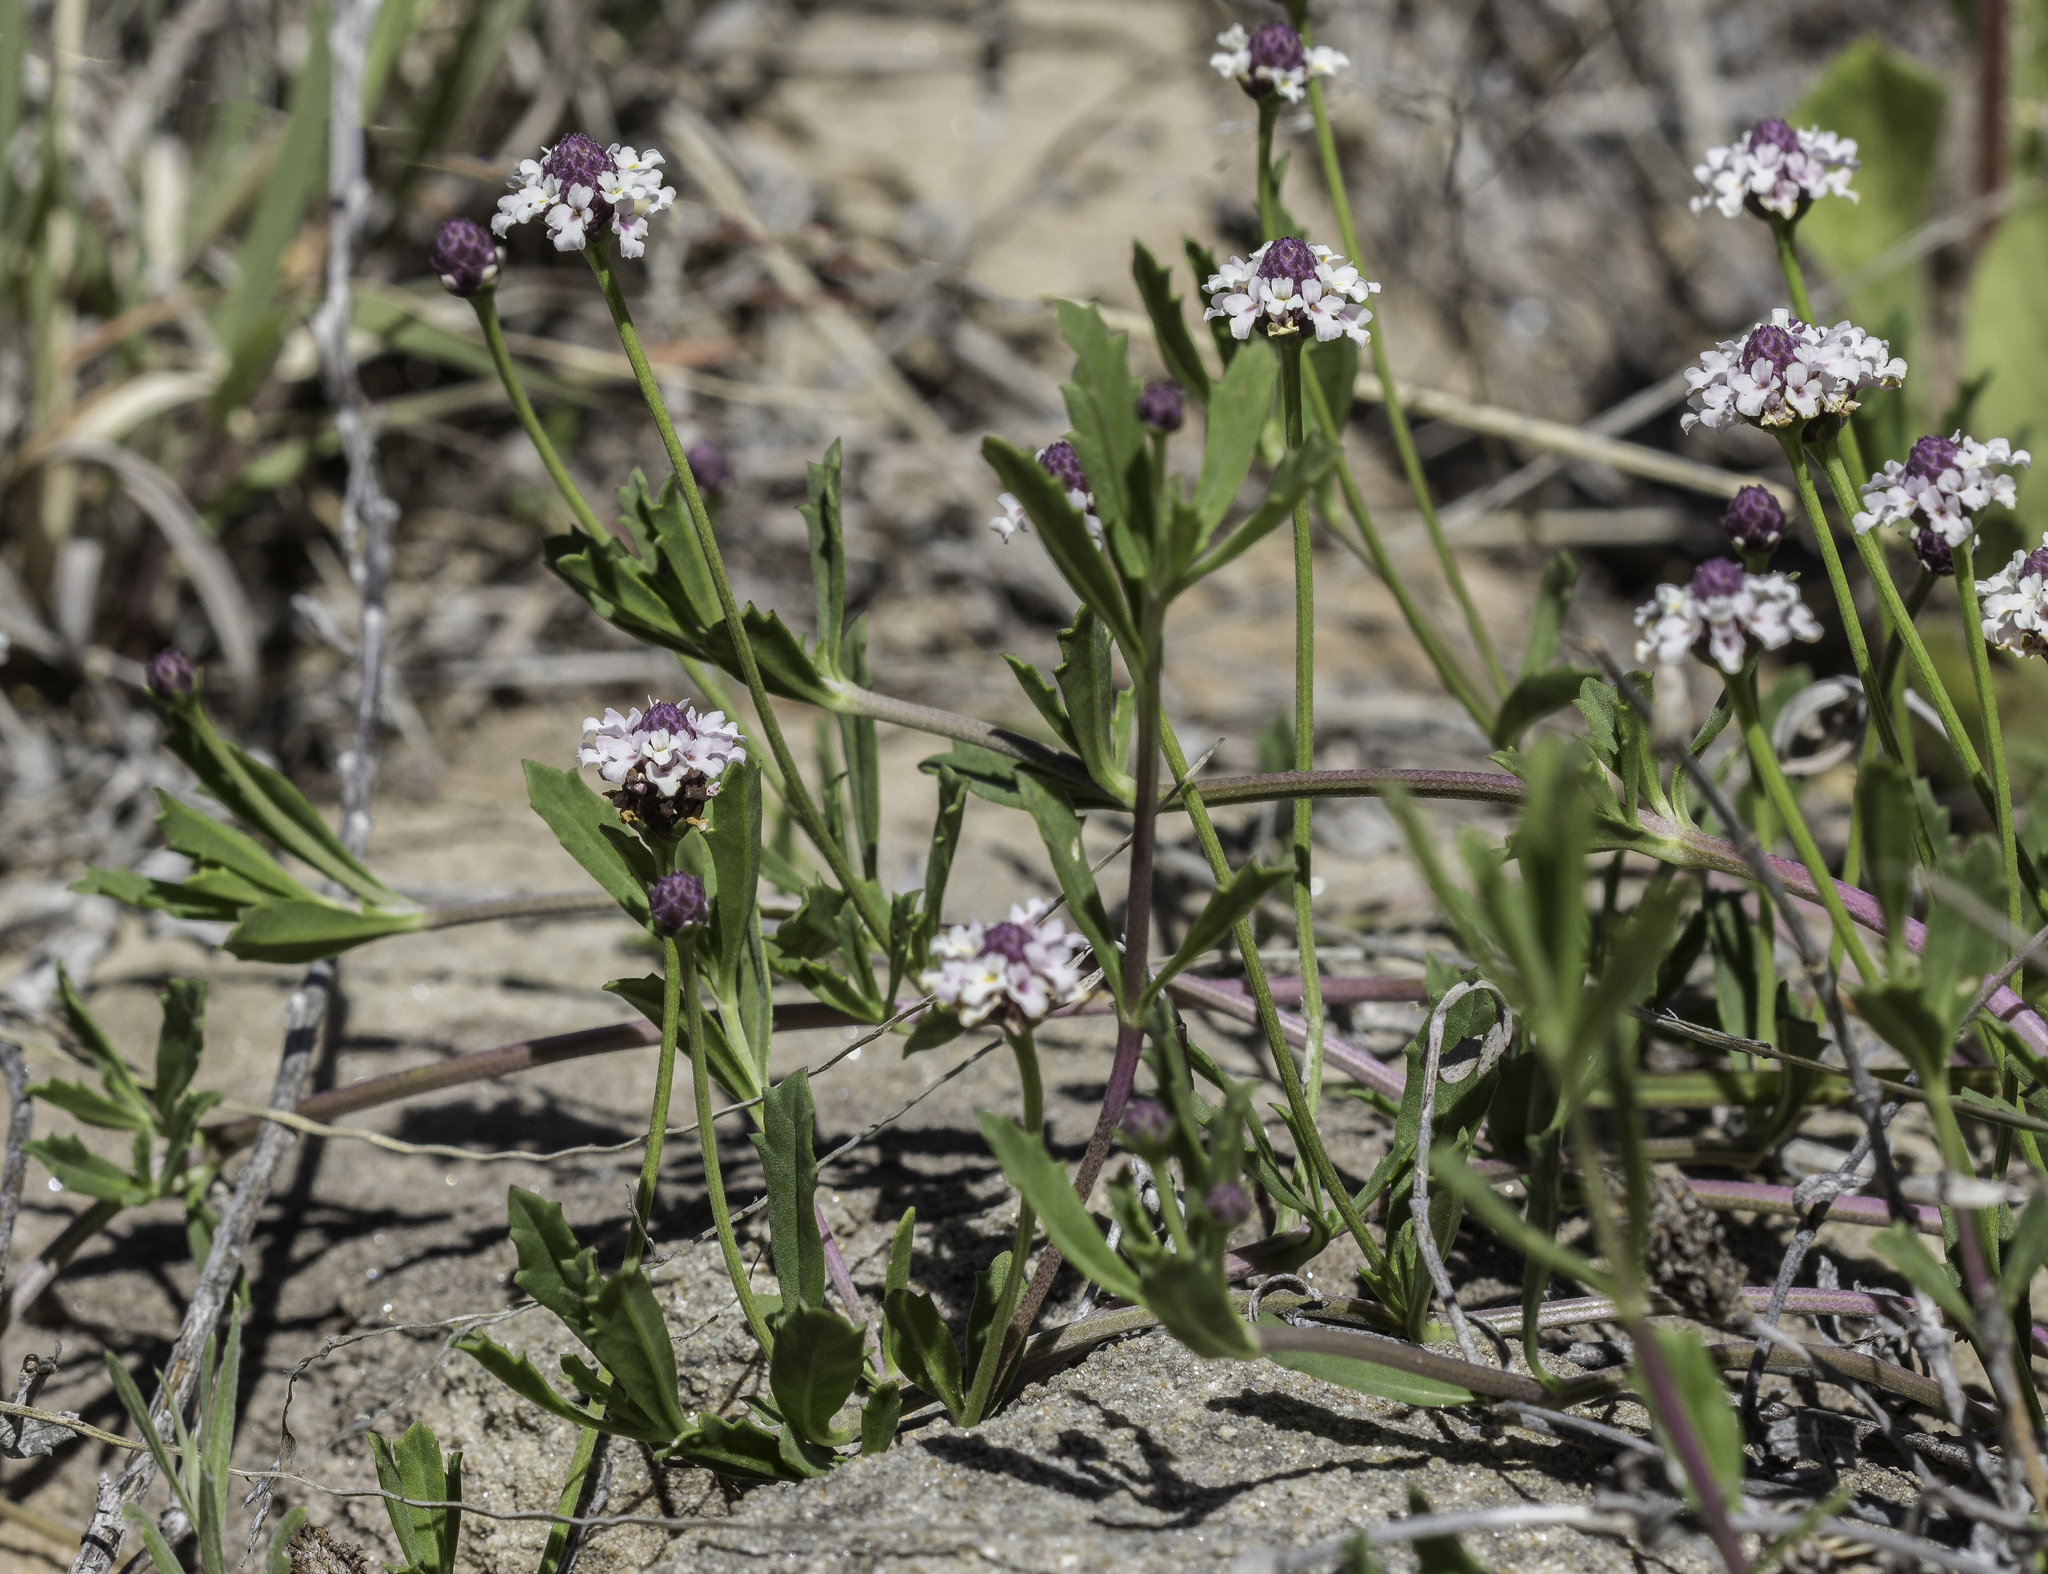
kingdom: Plantae
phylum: Tracheophyta
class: Magnoliopsida
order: Lamiales
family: Verbenaceae
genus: Phyla
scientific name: Phyla cuneifolia
